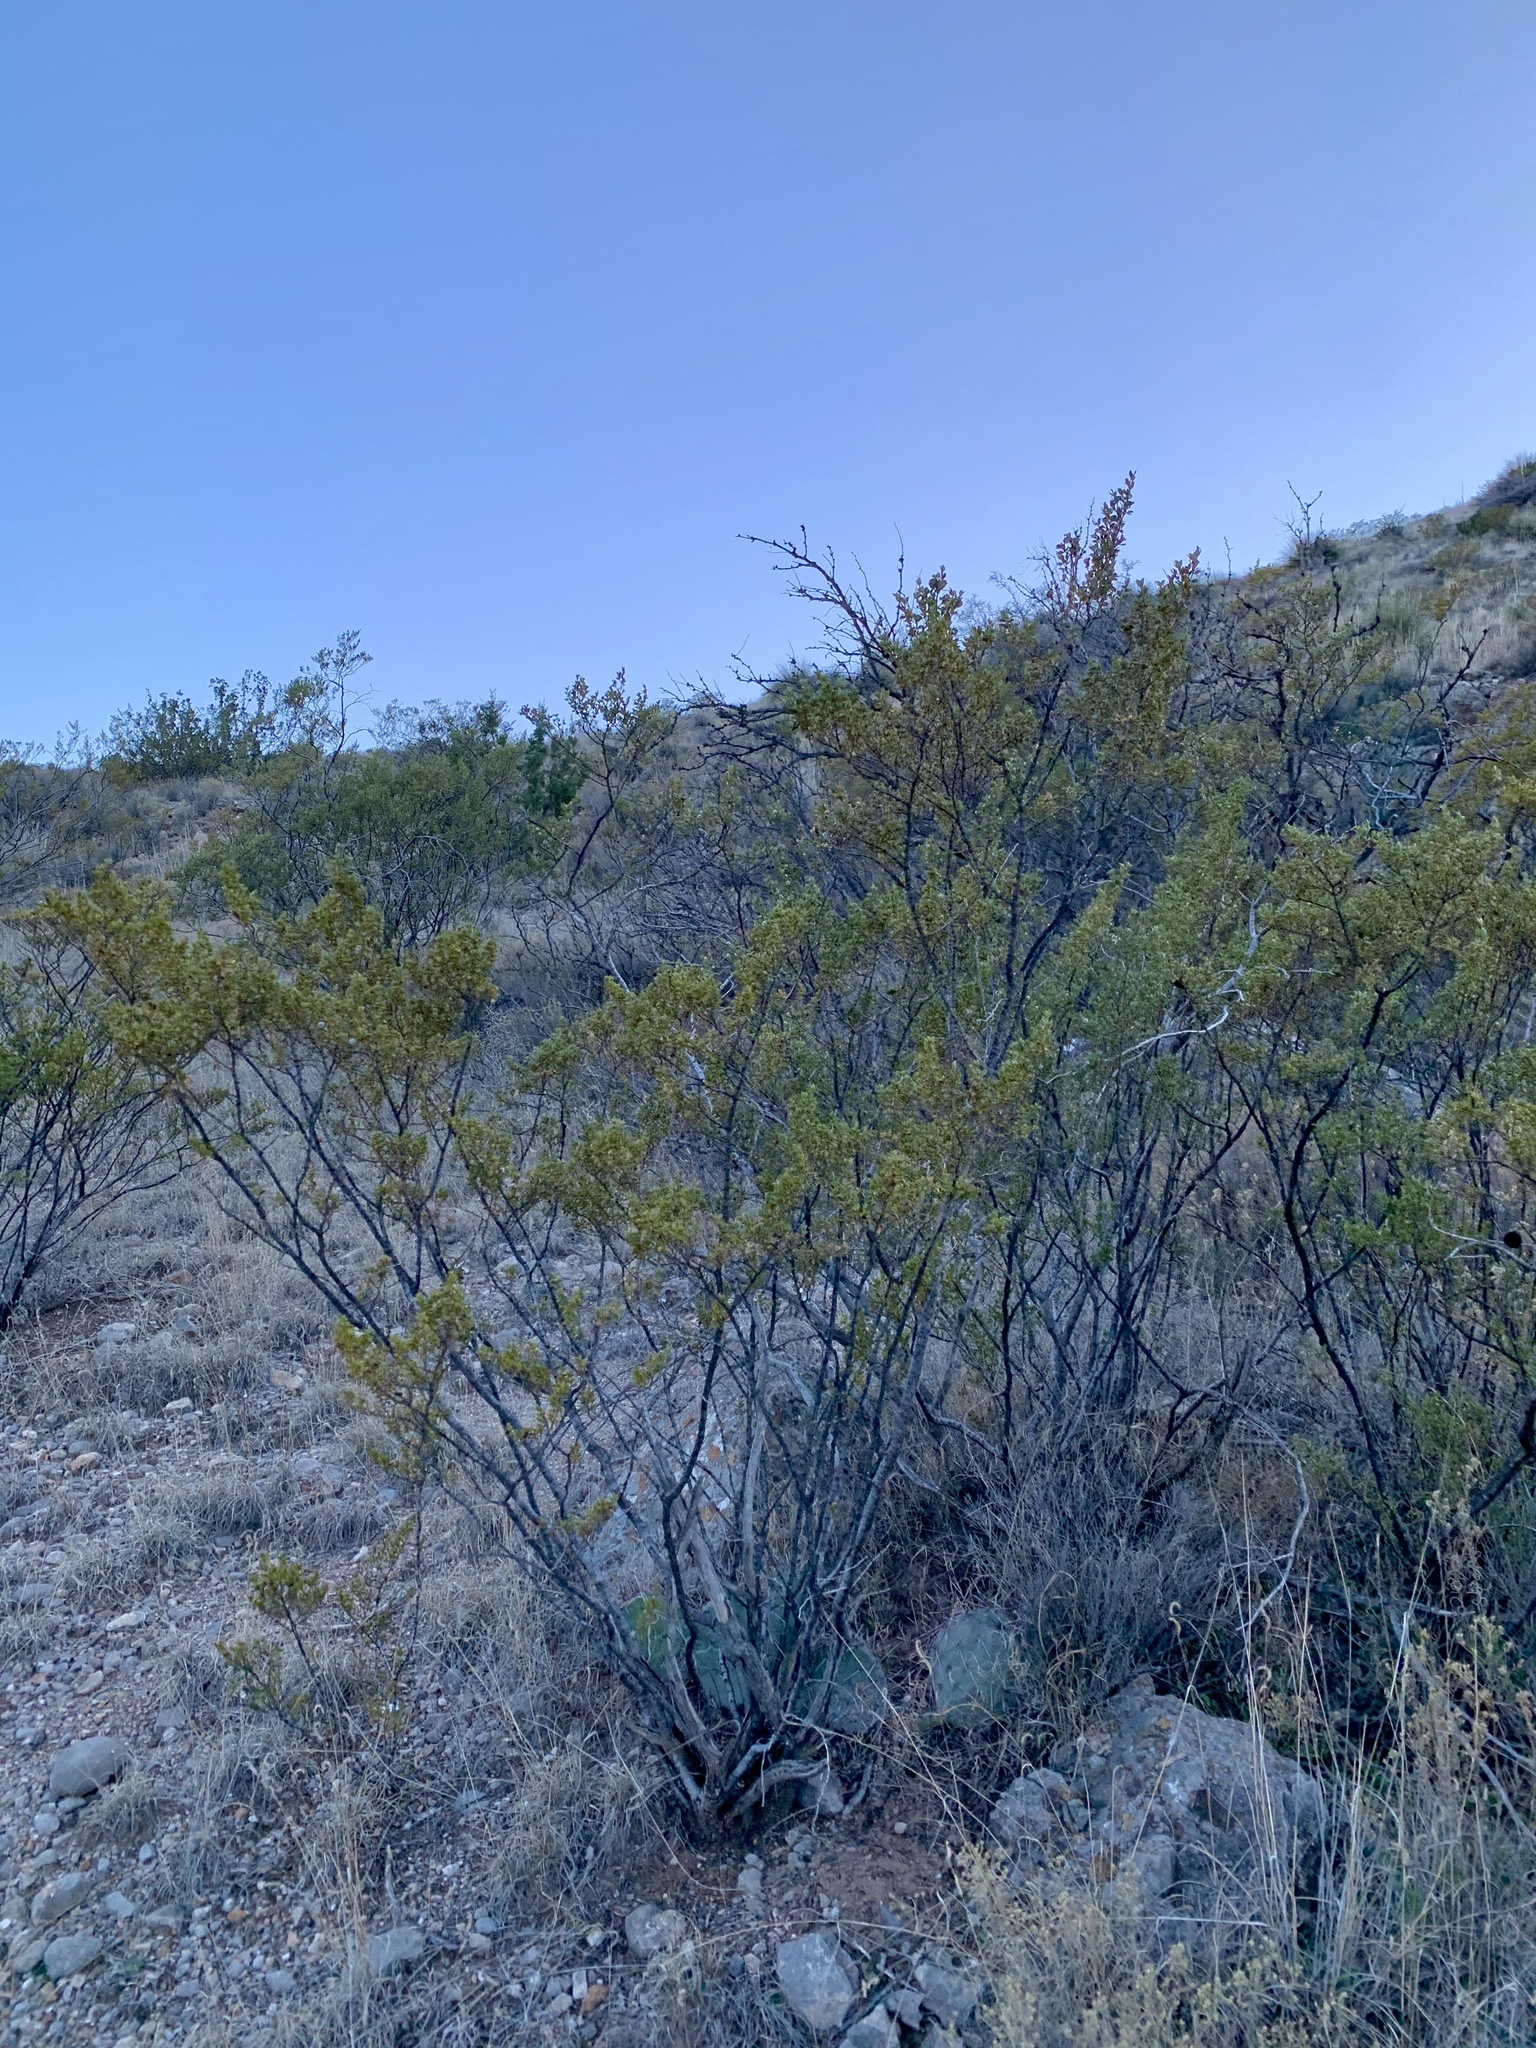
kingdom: Plantae
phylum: Tracheophyta
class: Magnoliopsida
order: Zygophyllales
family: Zygophyllaceae
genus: Larrea
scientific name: Larrea tridentata
